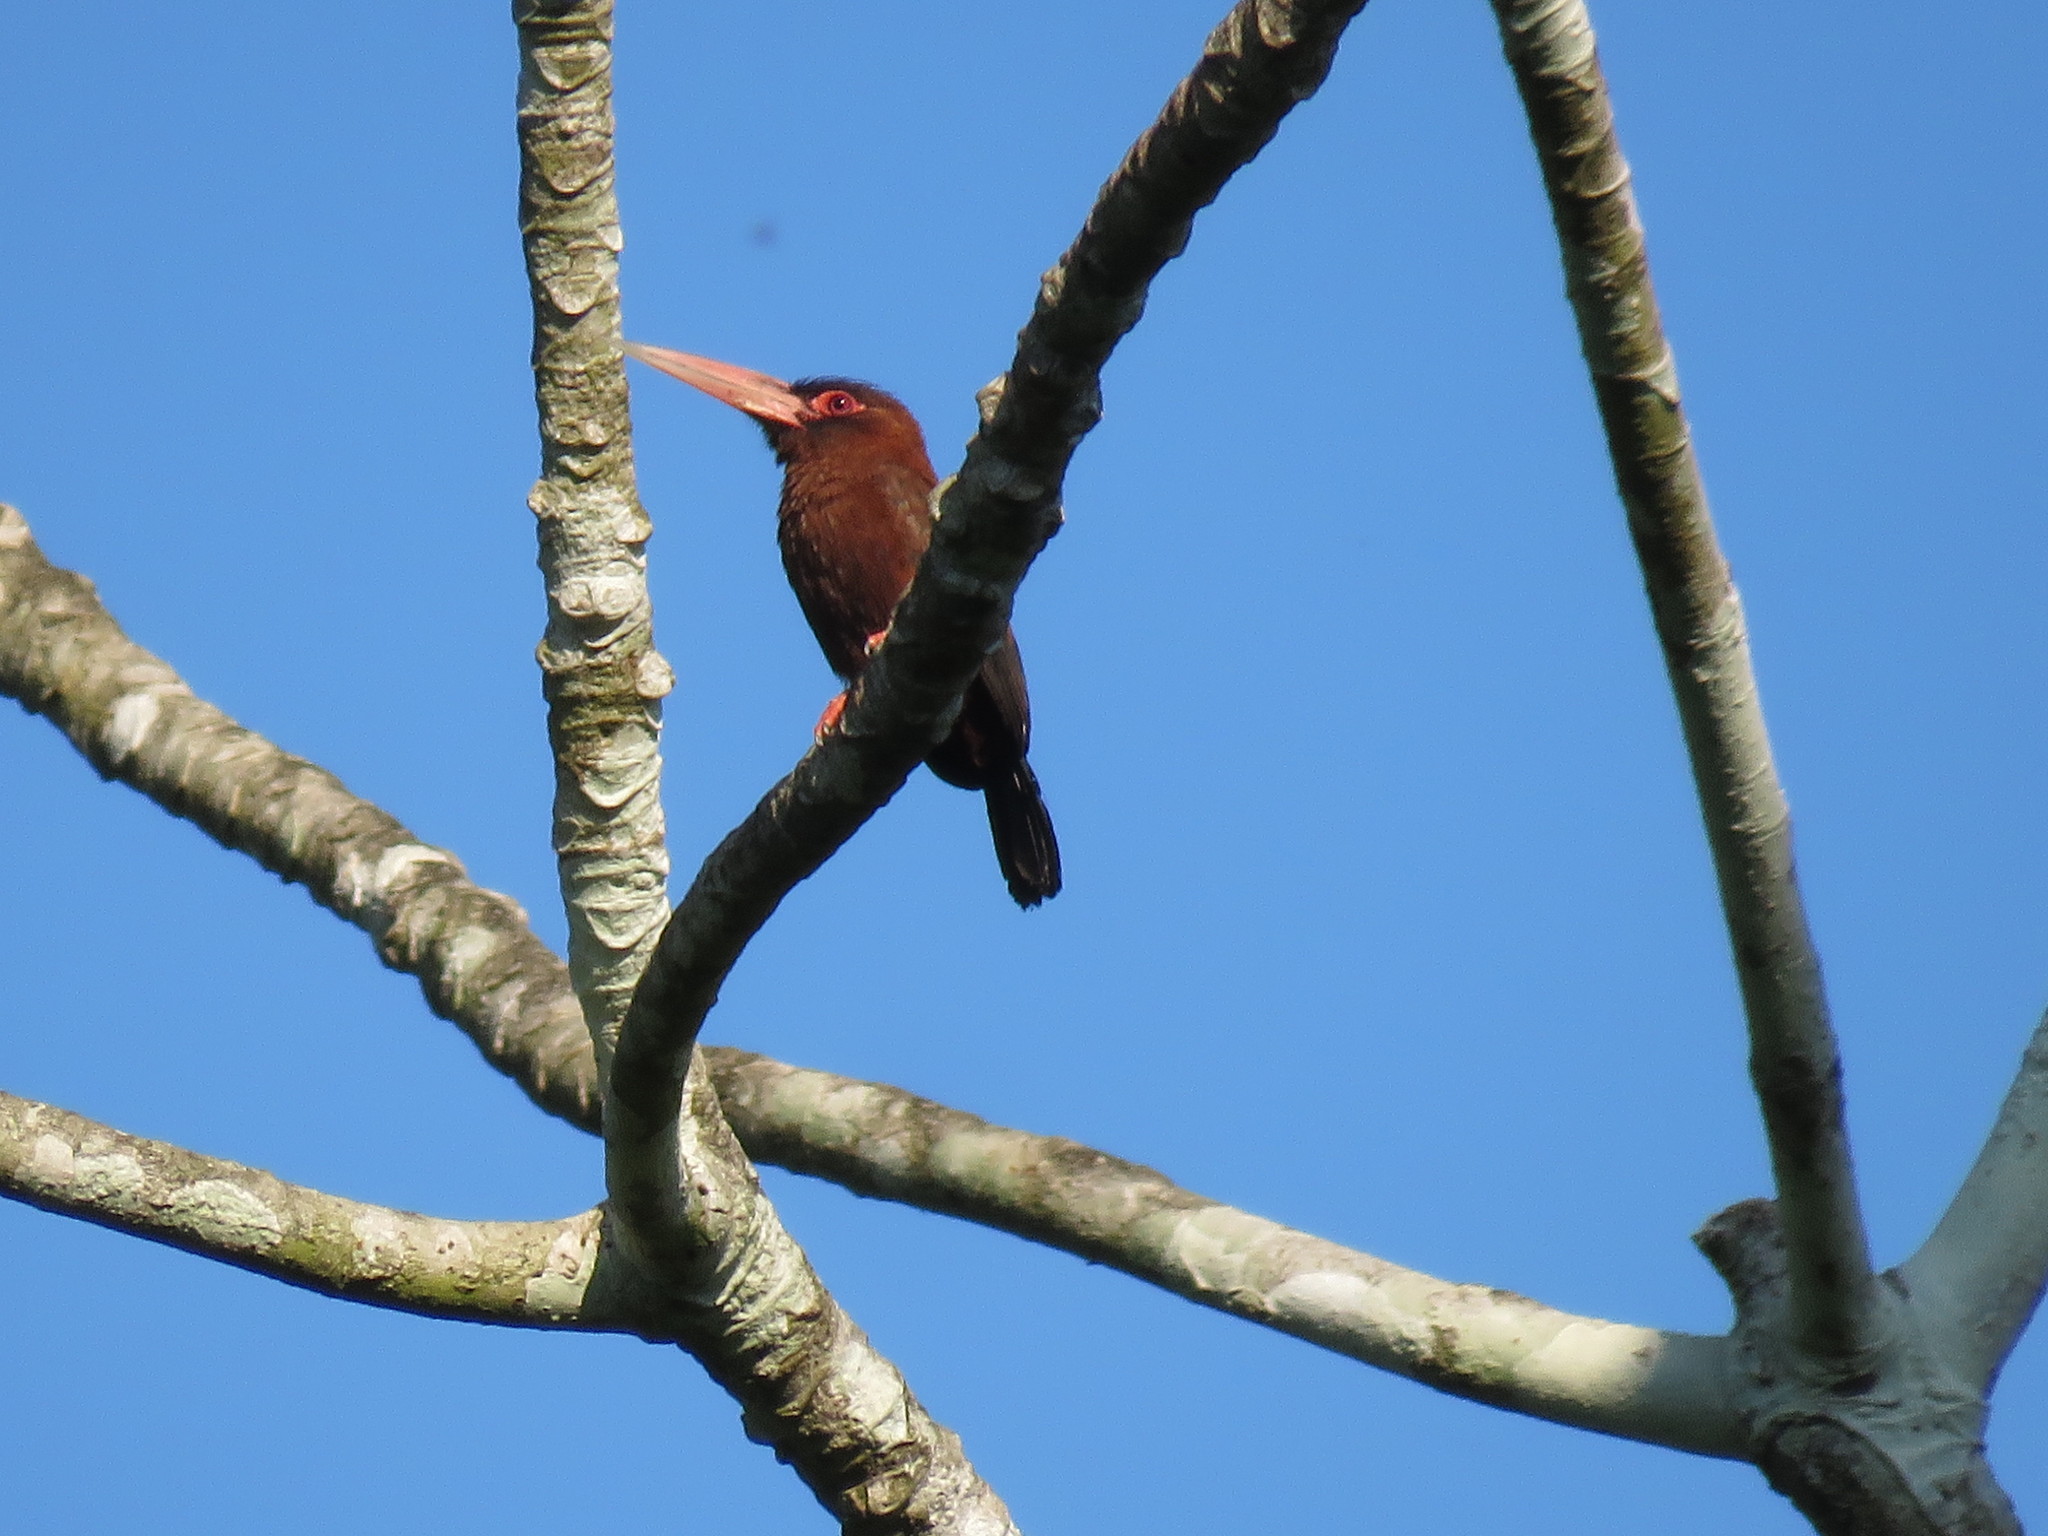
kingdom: Animalia
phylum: Chordata
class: Aves
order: Piciformes
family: Galbulidae
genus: Galbalcyrhynchus
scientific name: Galbalcyrhynchus purusianus
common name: Purus jacamar
